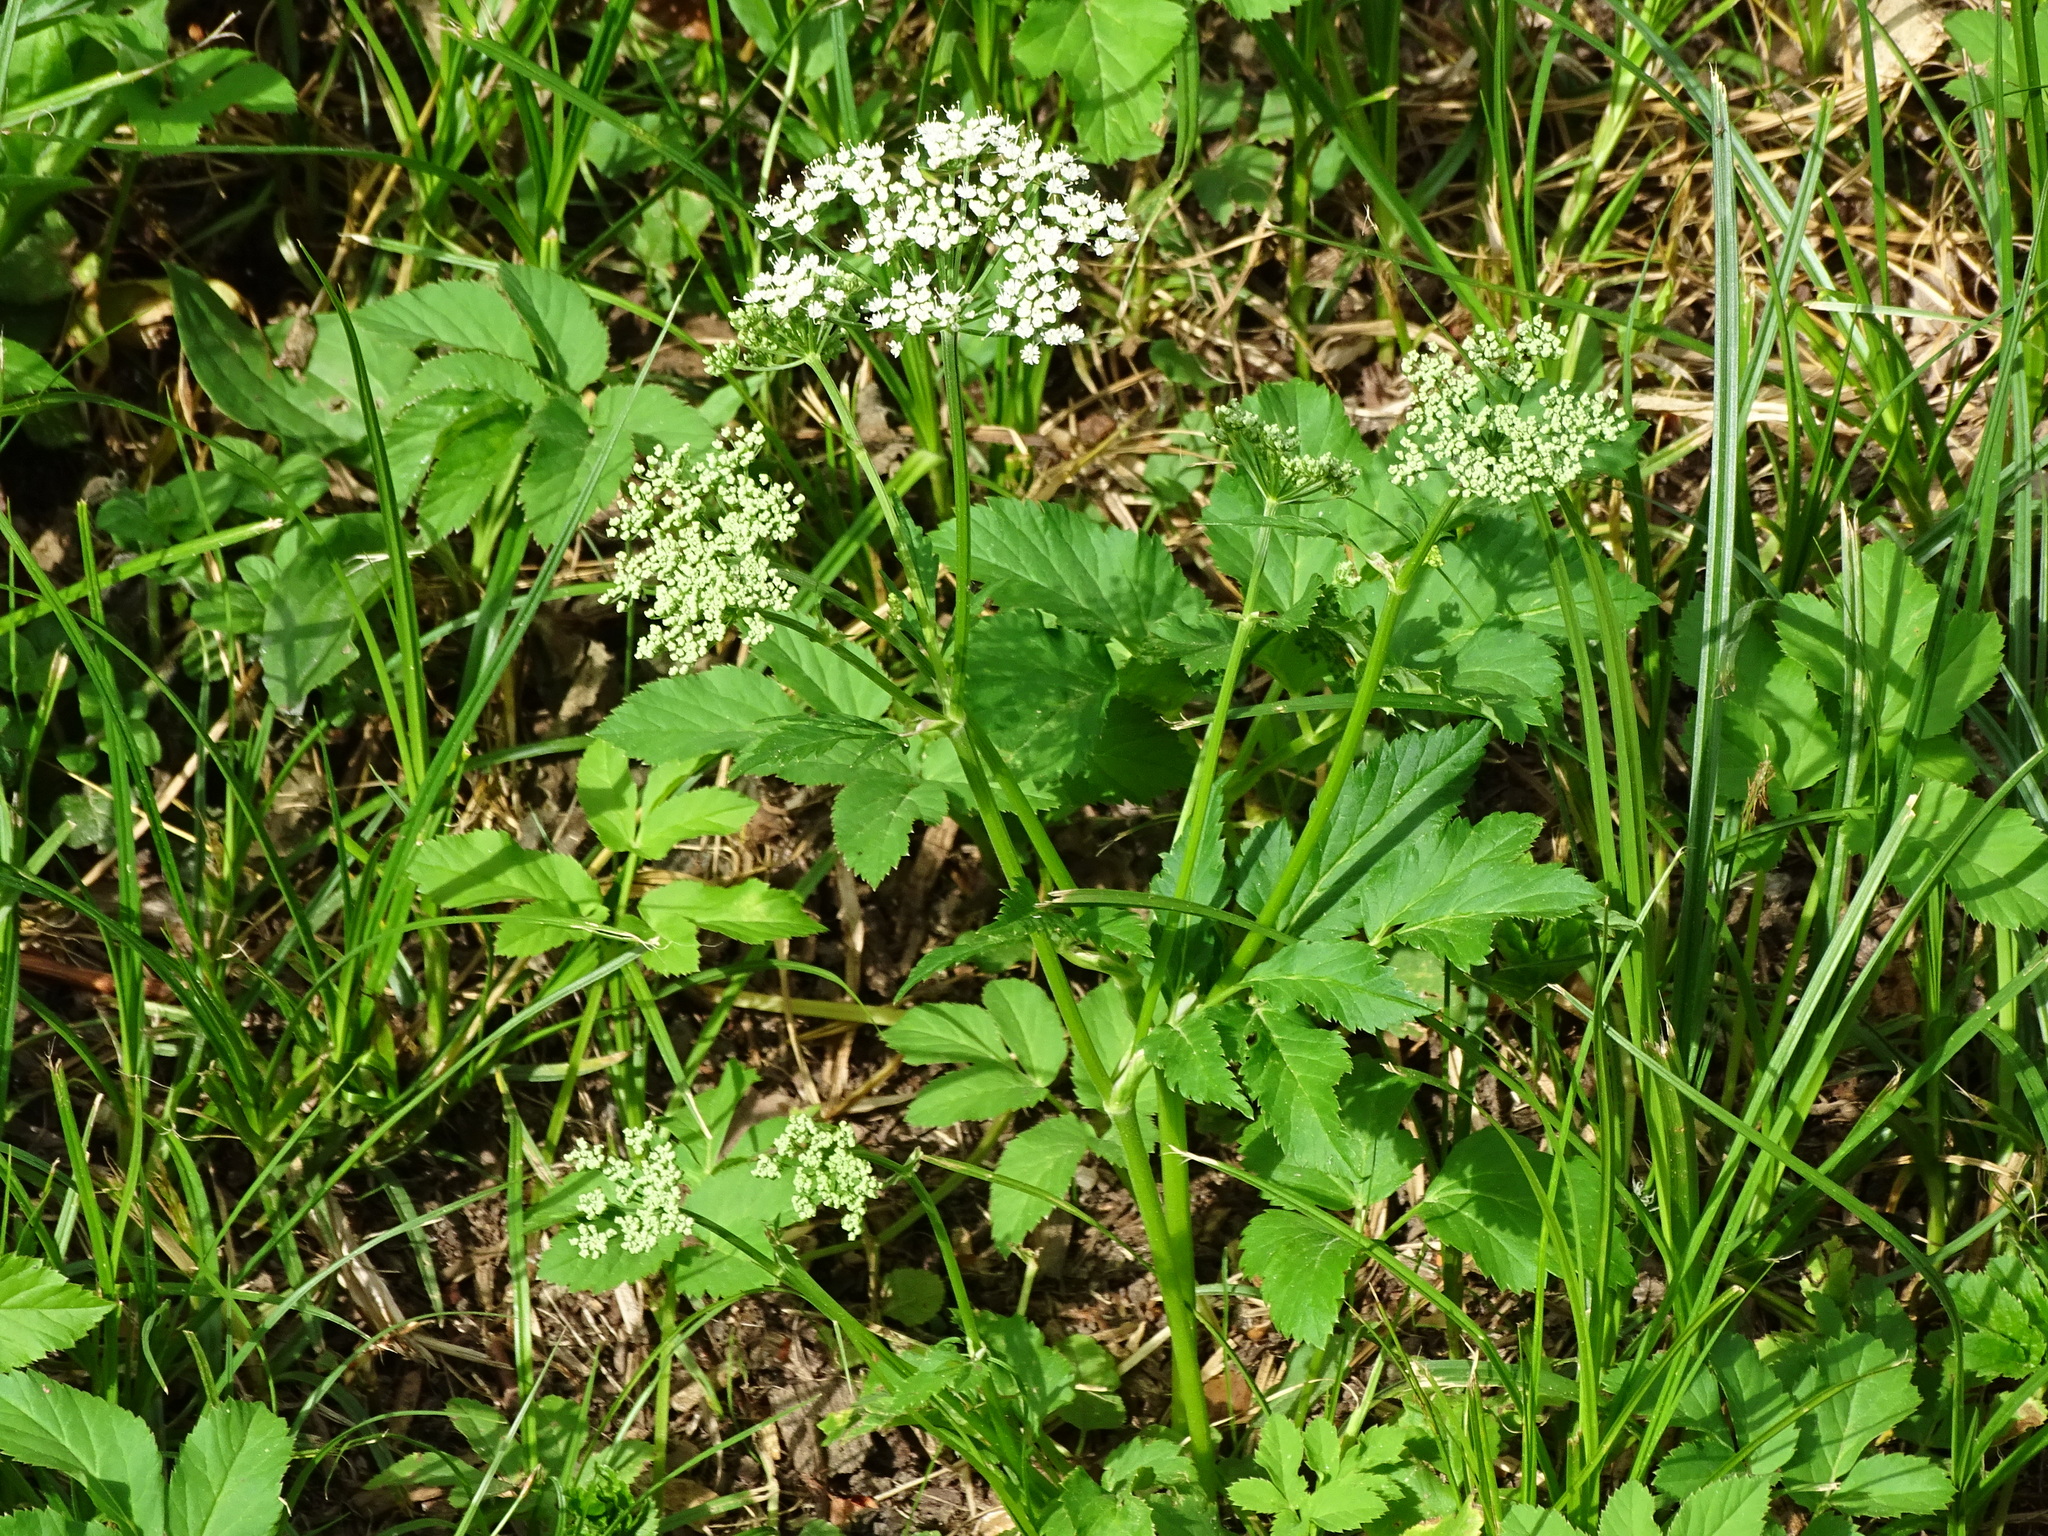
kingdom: Plantae
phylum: Tracheophyta
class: Magnoliopsida
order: Apiales
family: Apiaceae
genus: Aegopodium
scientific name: Aegopodium podagraria
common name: Ground-elder
